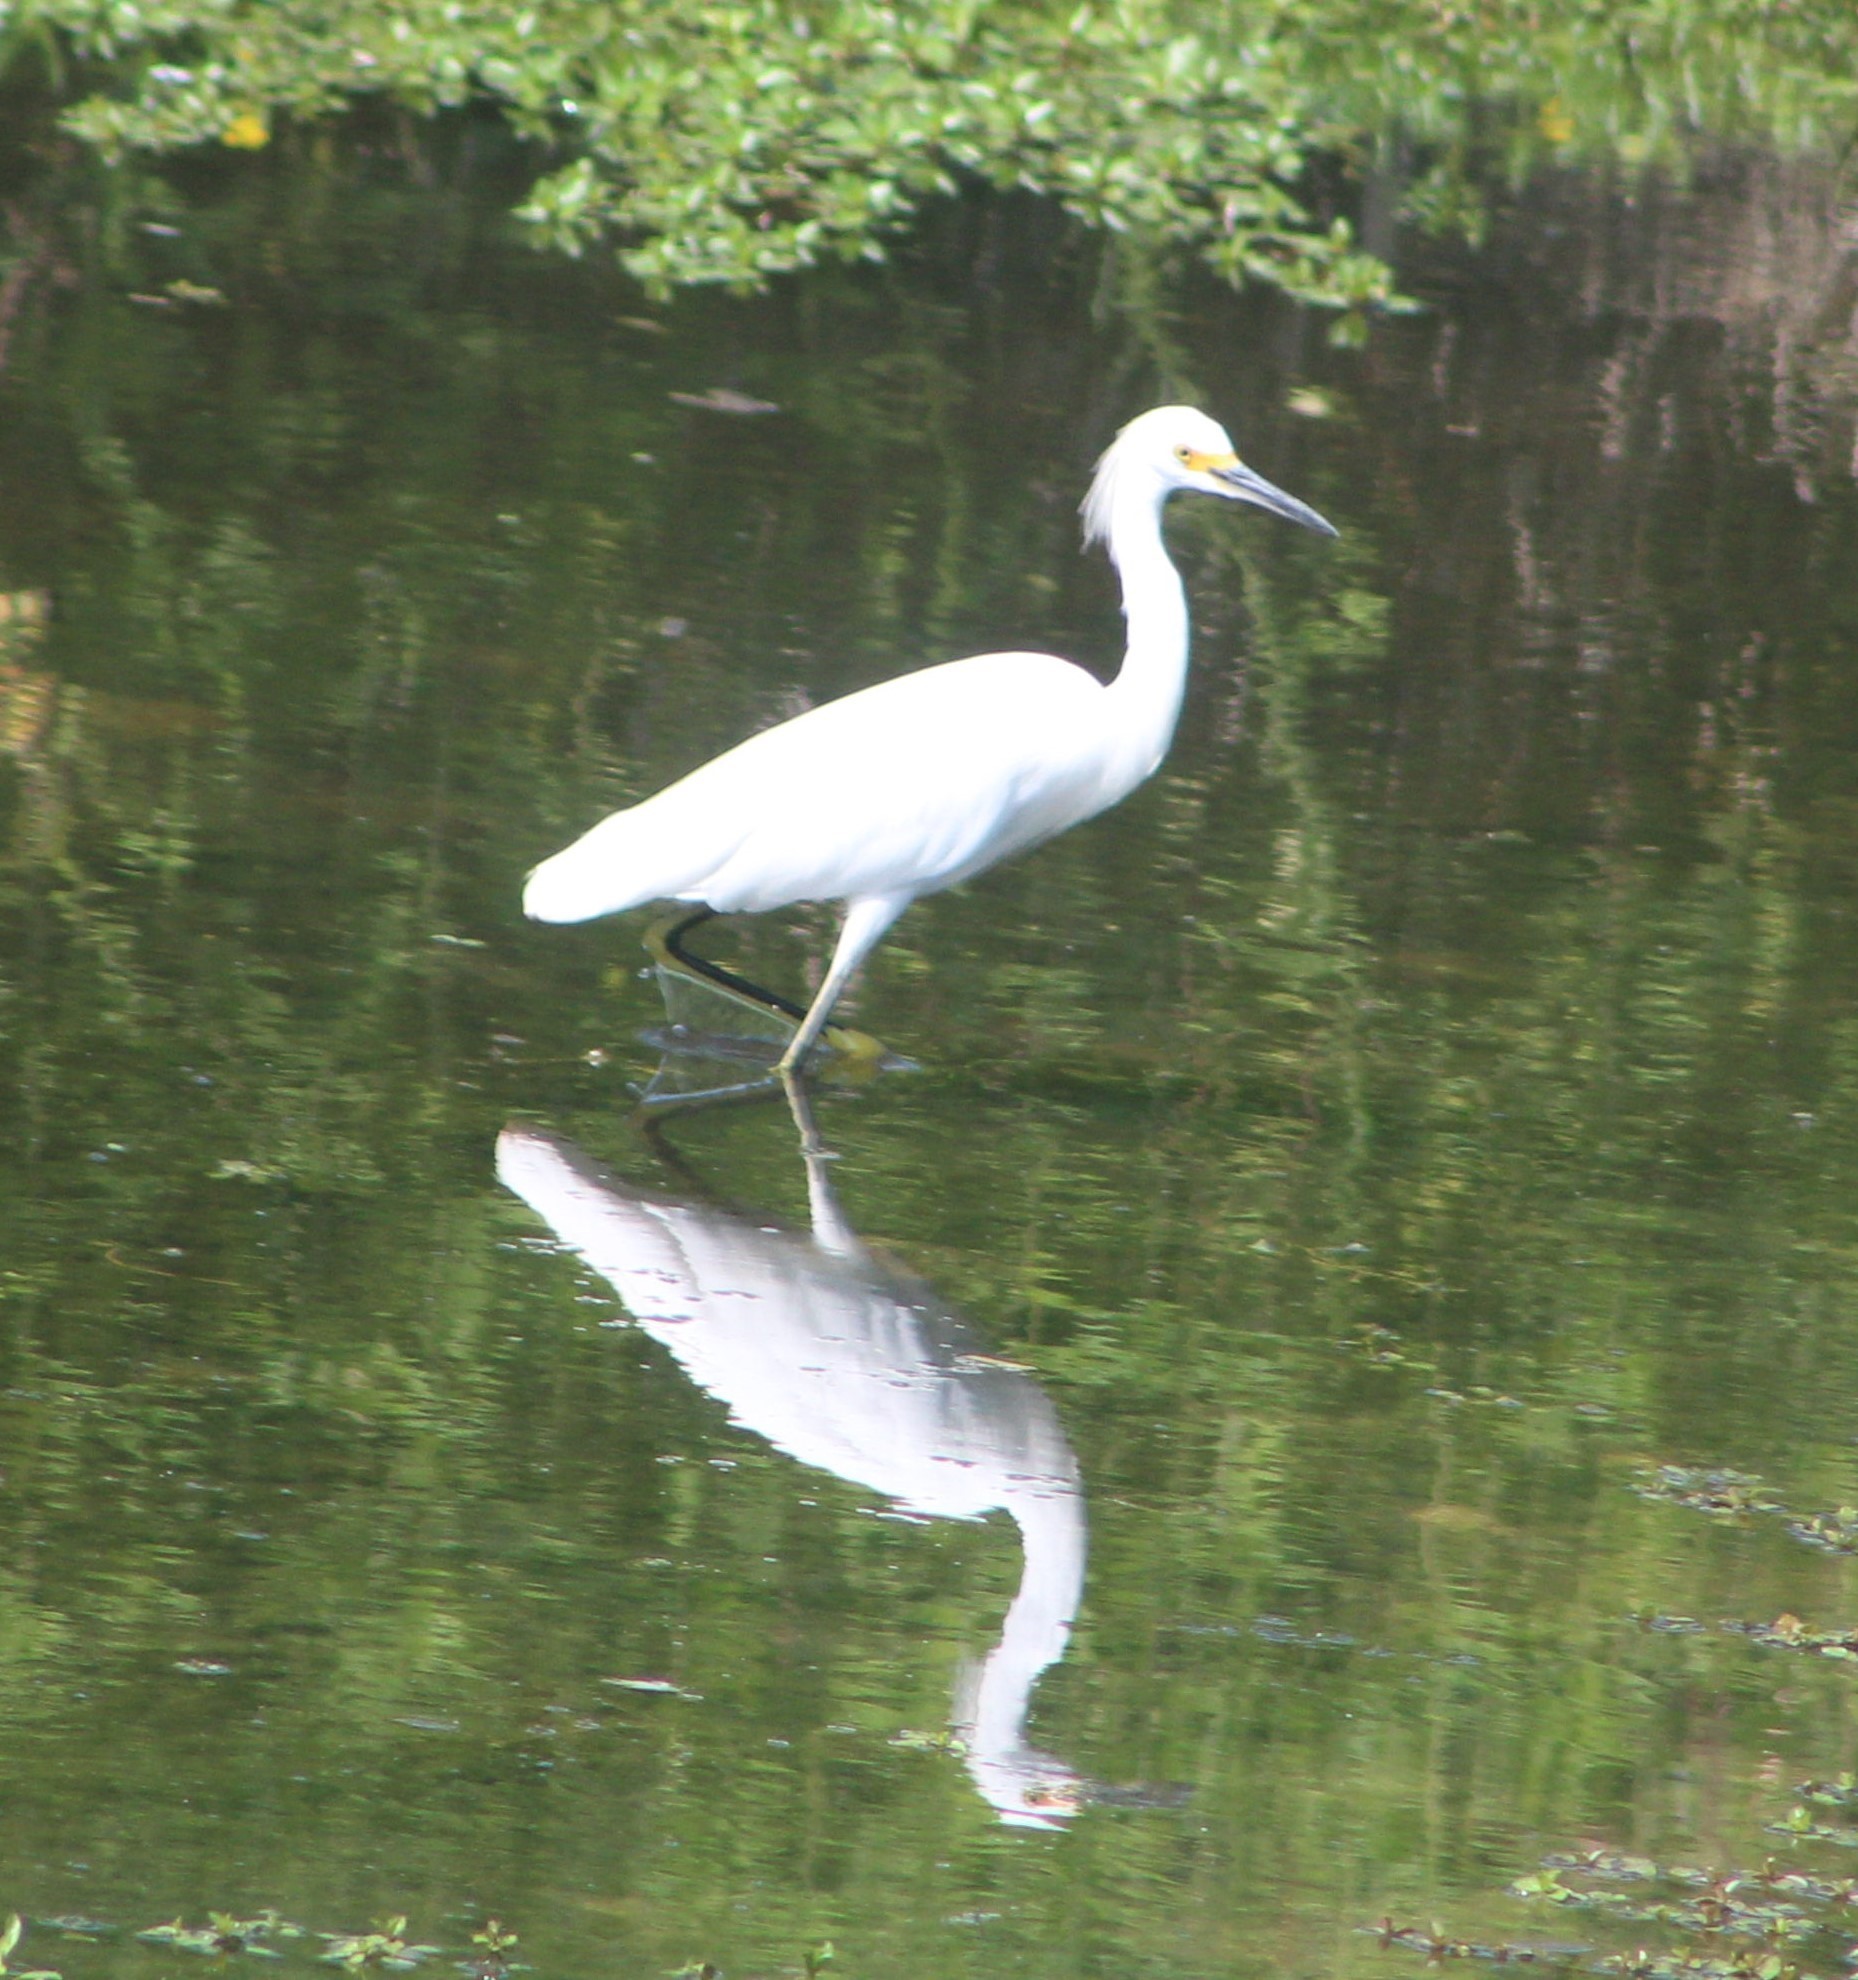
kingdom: Animalia
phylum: Chordata
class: Aves
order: Pelecaniformes
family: Ardeidae
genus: Egretta
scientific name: Egretta thula
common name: Snowy egret
